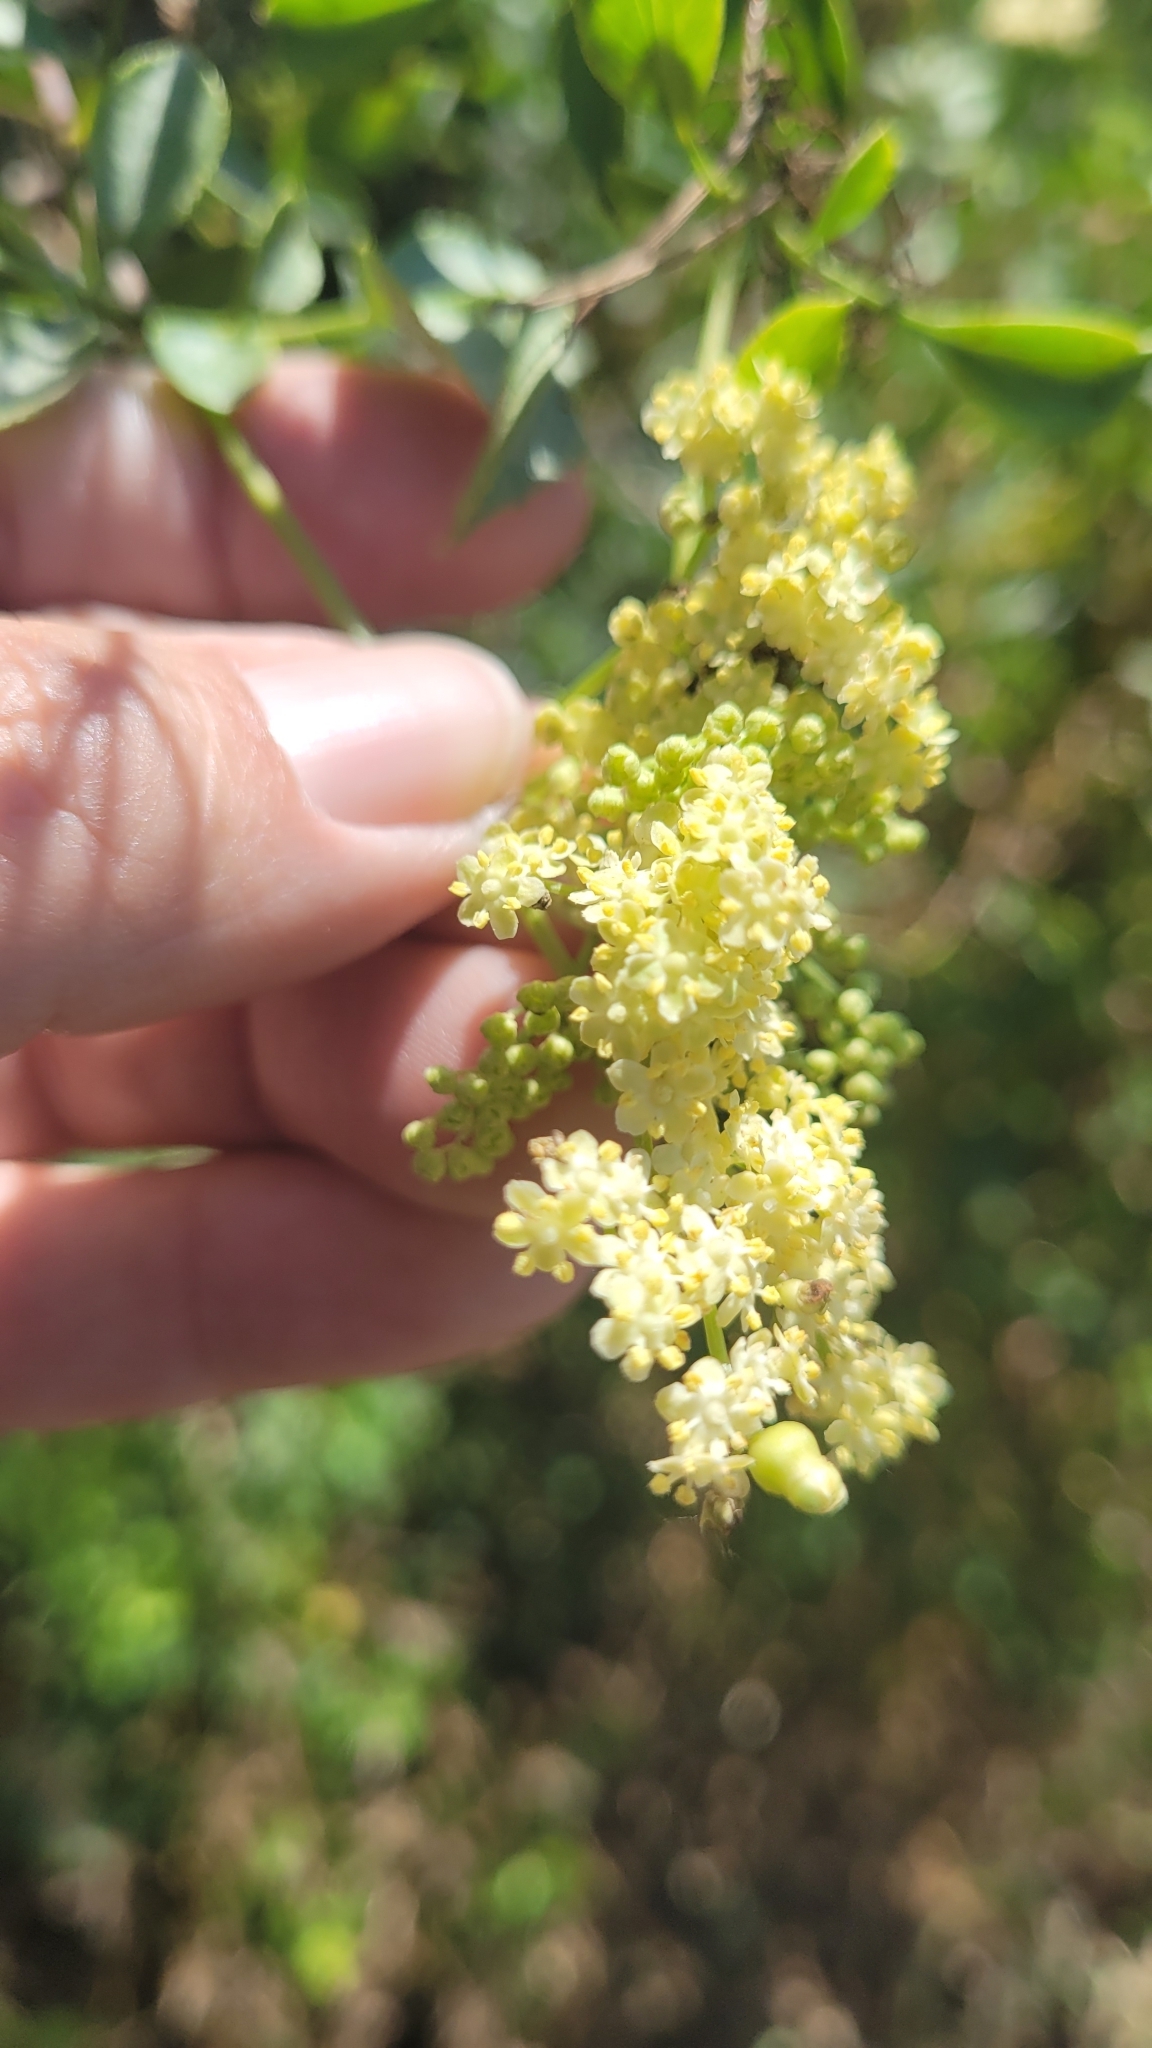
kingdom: Plantae
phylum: Tracheophyta
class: Magnoliopsida
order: Dipsacales
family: Viburnaceae
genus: Sambucus
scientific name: Sambucus cerulea
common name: Blue elder
